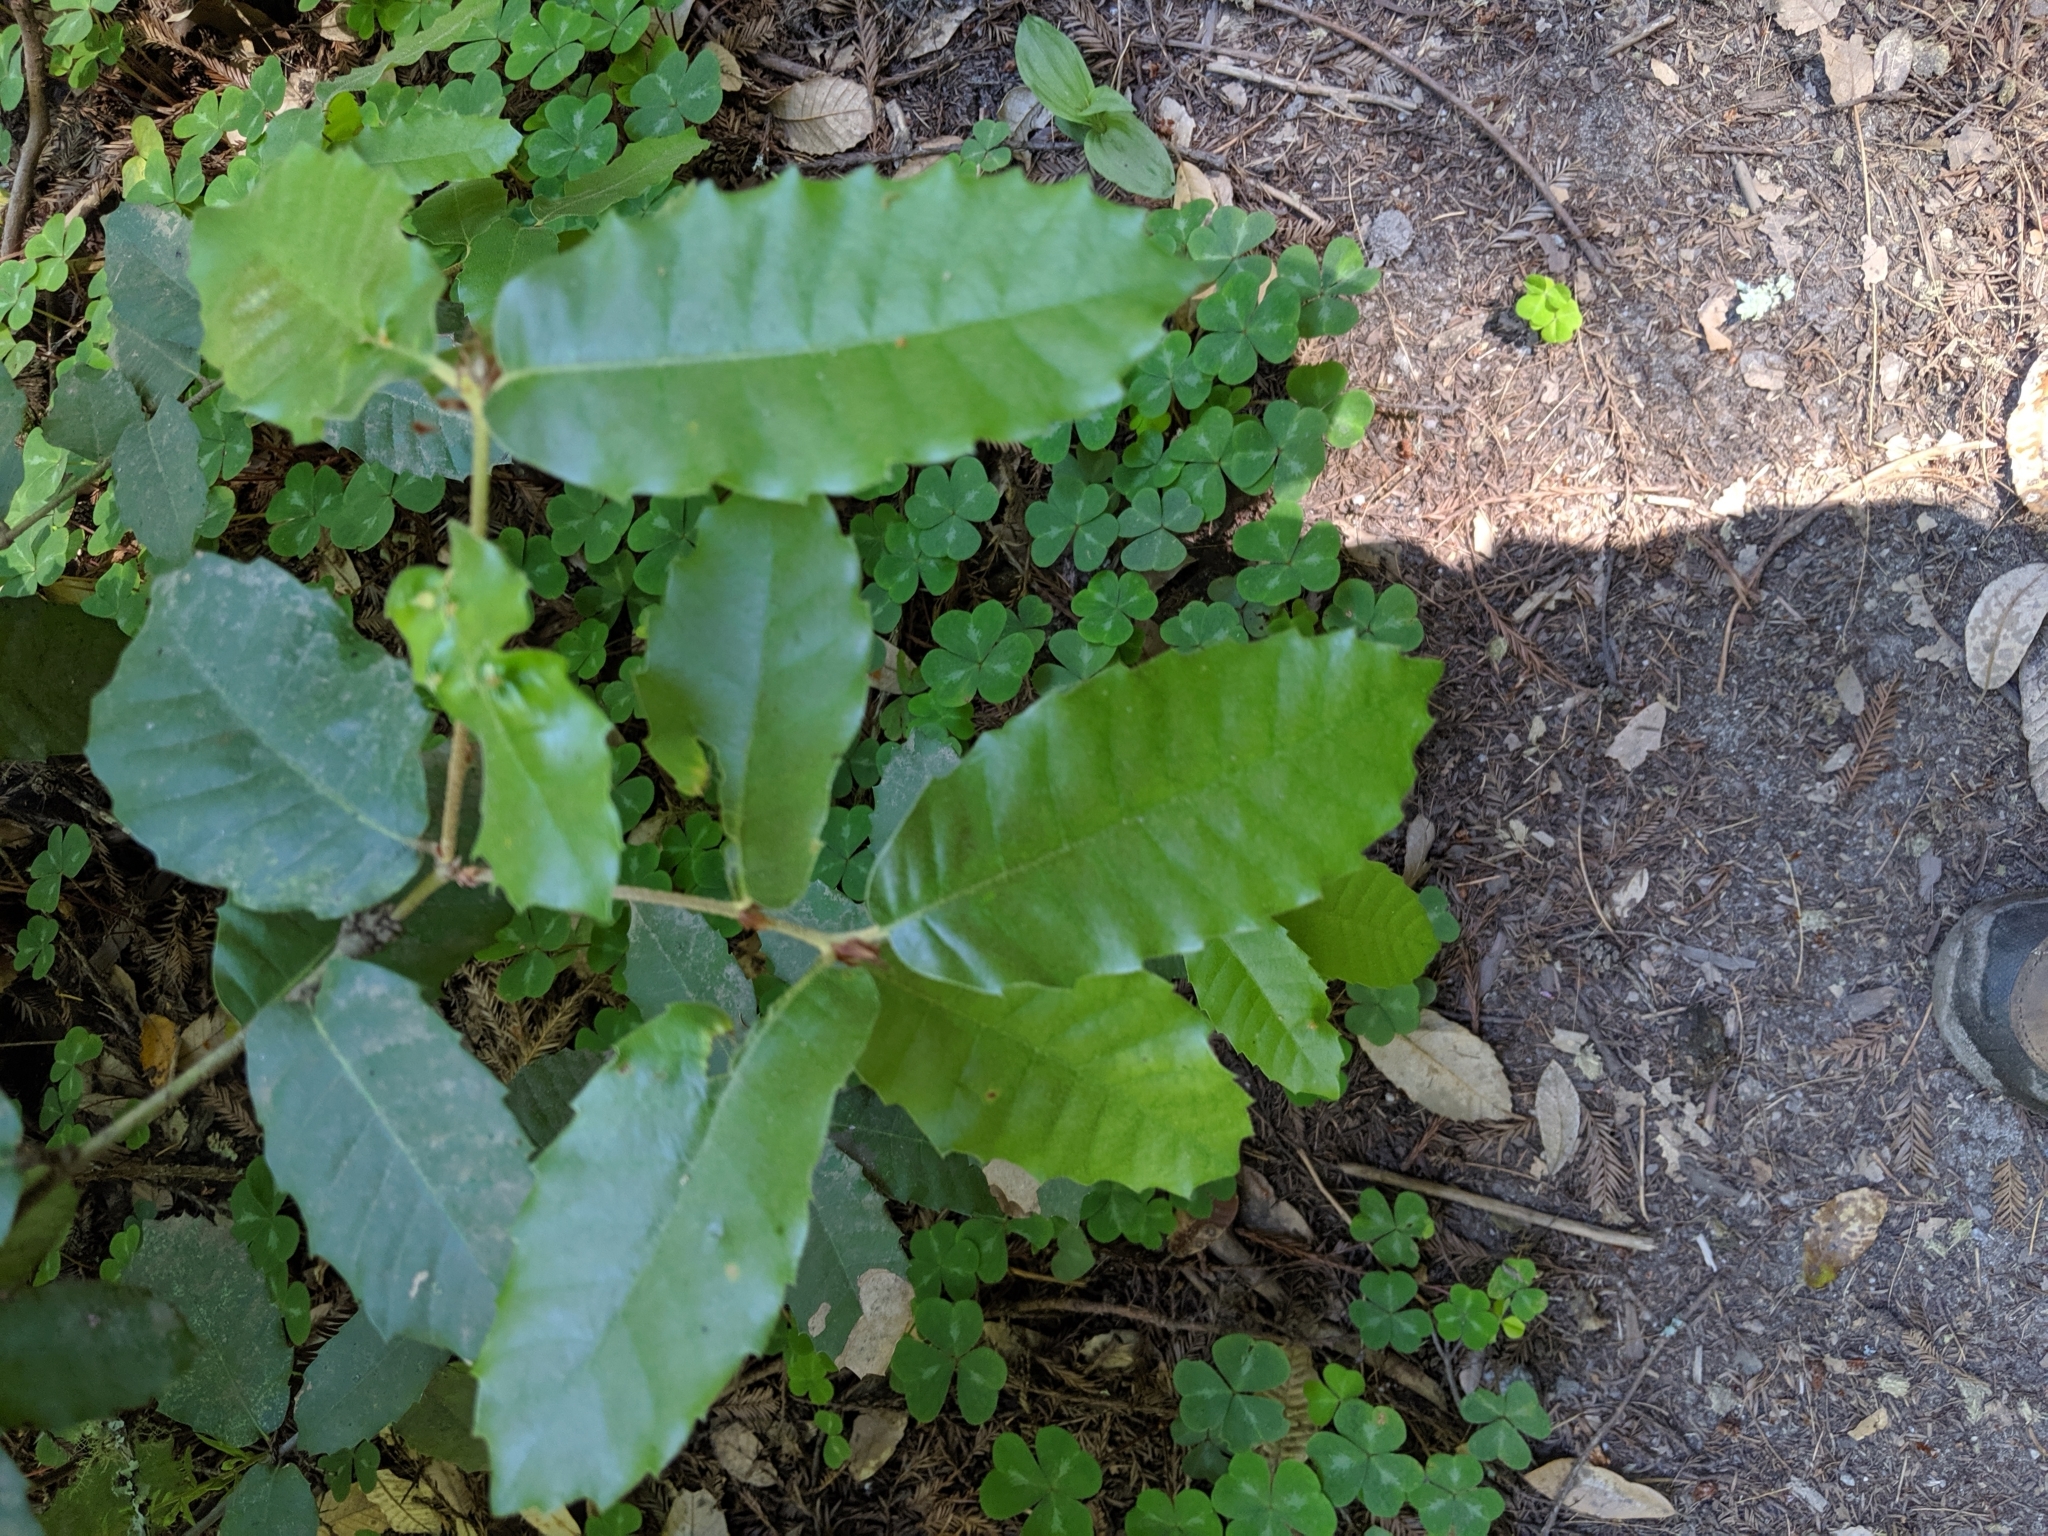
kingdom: Plantae
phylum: Tracheophyta
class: Magnoliopsida
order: Fagales
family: Fagaceae
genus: Notholithocarpus
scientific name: Notholithocarpus densiflorus
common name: Tan bark oak
